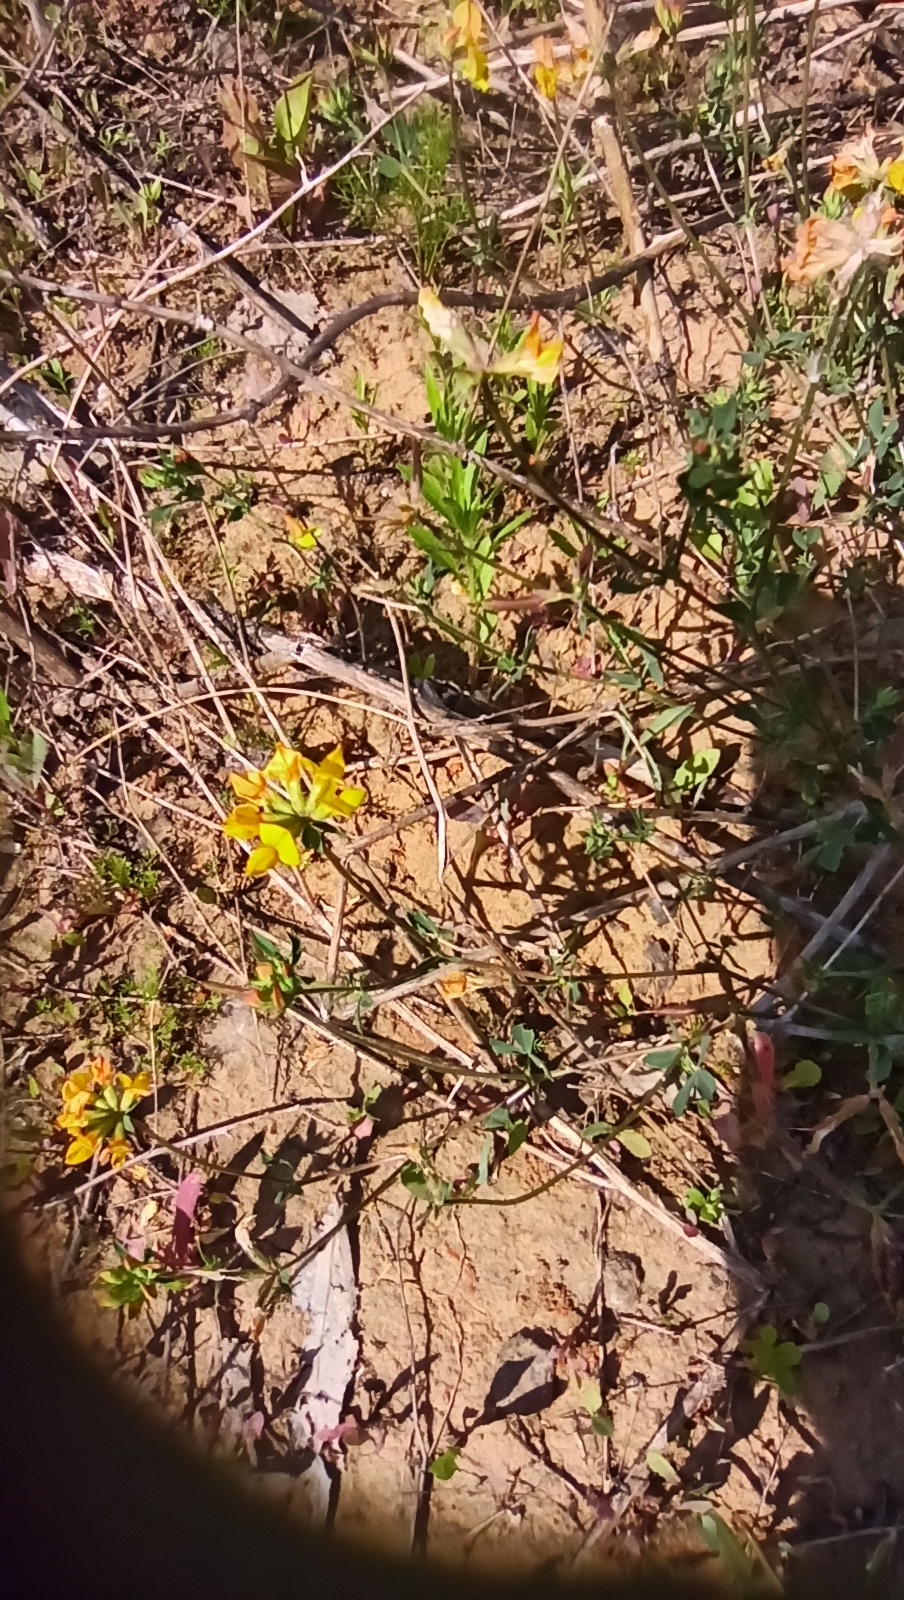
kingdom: Plantae
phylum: Tracheophyta
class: Magnoliopsida
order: Fabales
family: Fabaceae
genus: Lotus
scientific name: Lotus corniculatus
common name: Common bird's-foot-trefoil
